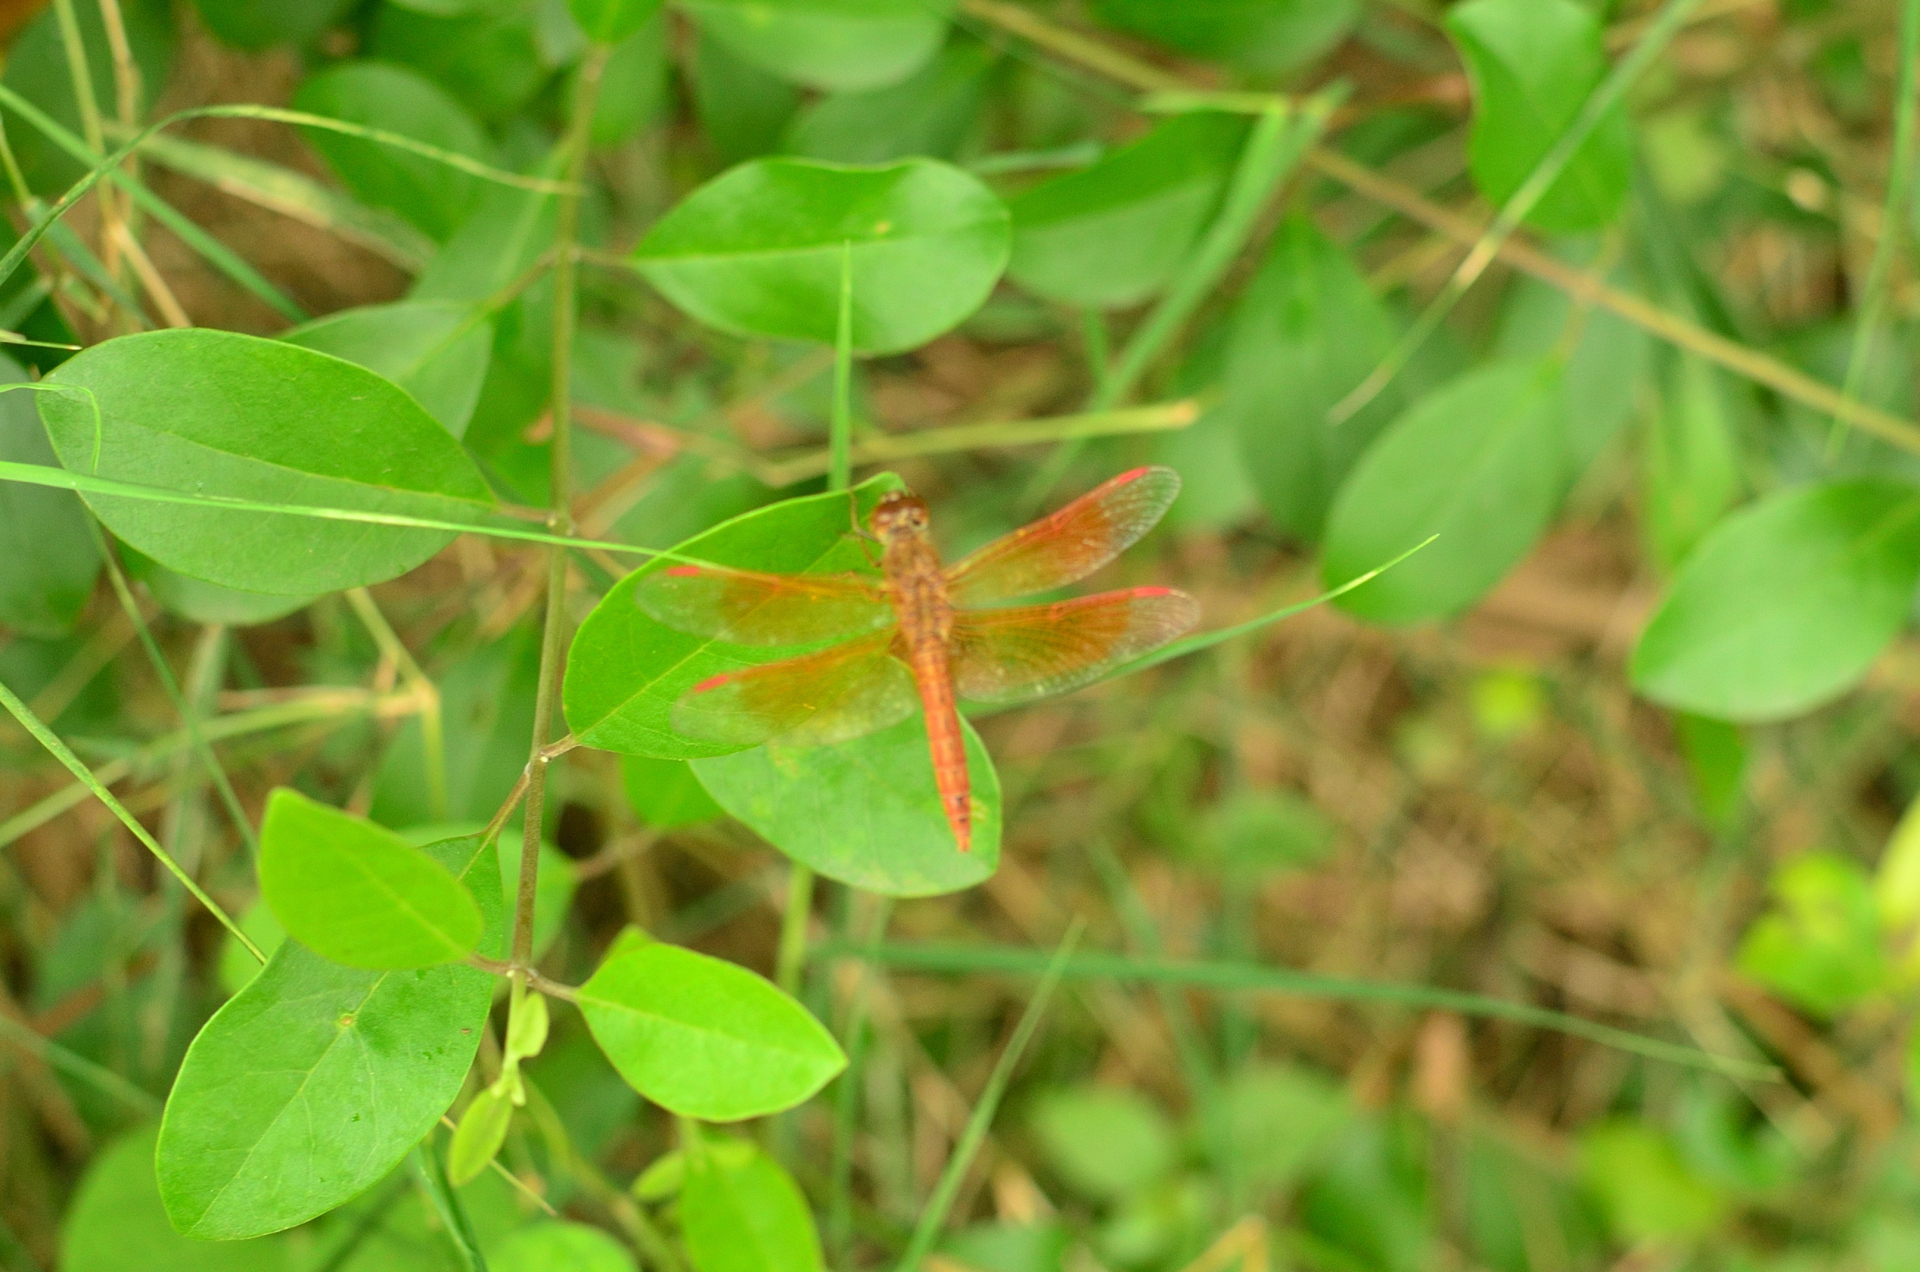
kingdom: Animalia
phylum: Arthropoda
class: Insecta
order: Odonata
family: Libellulidae
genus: Brachythemis
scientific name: Brachythemis contaminata
